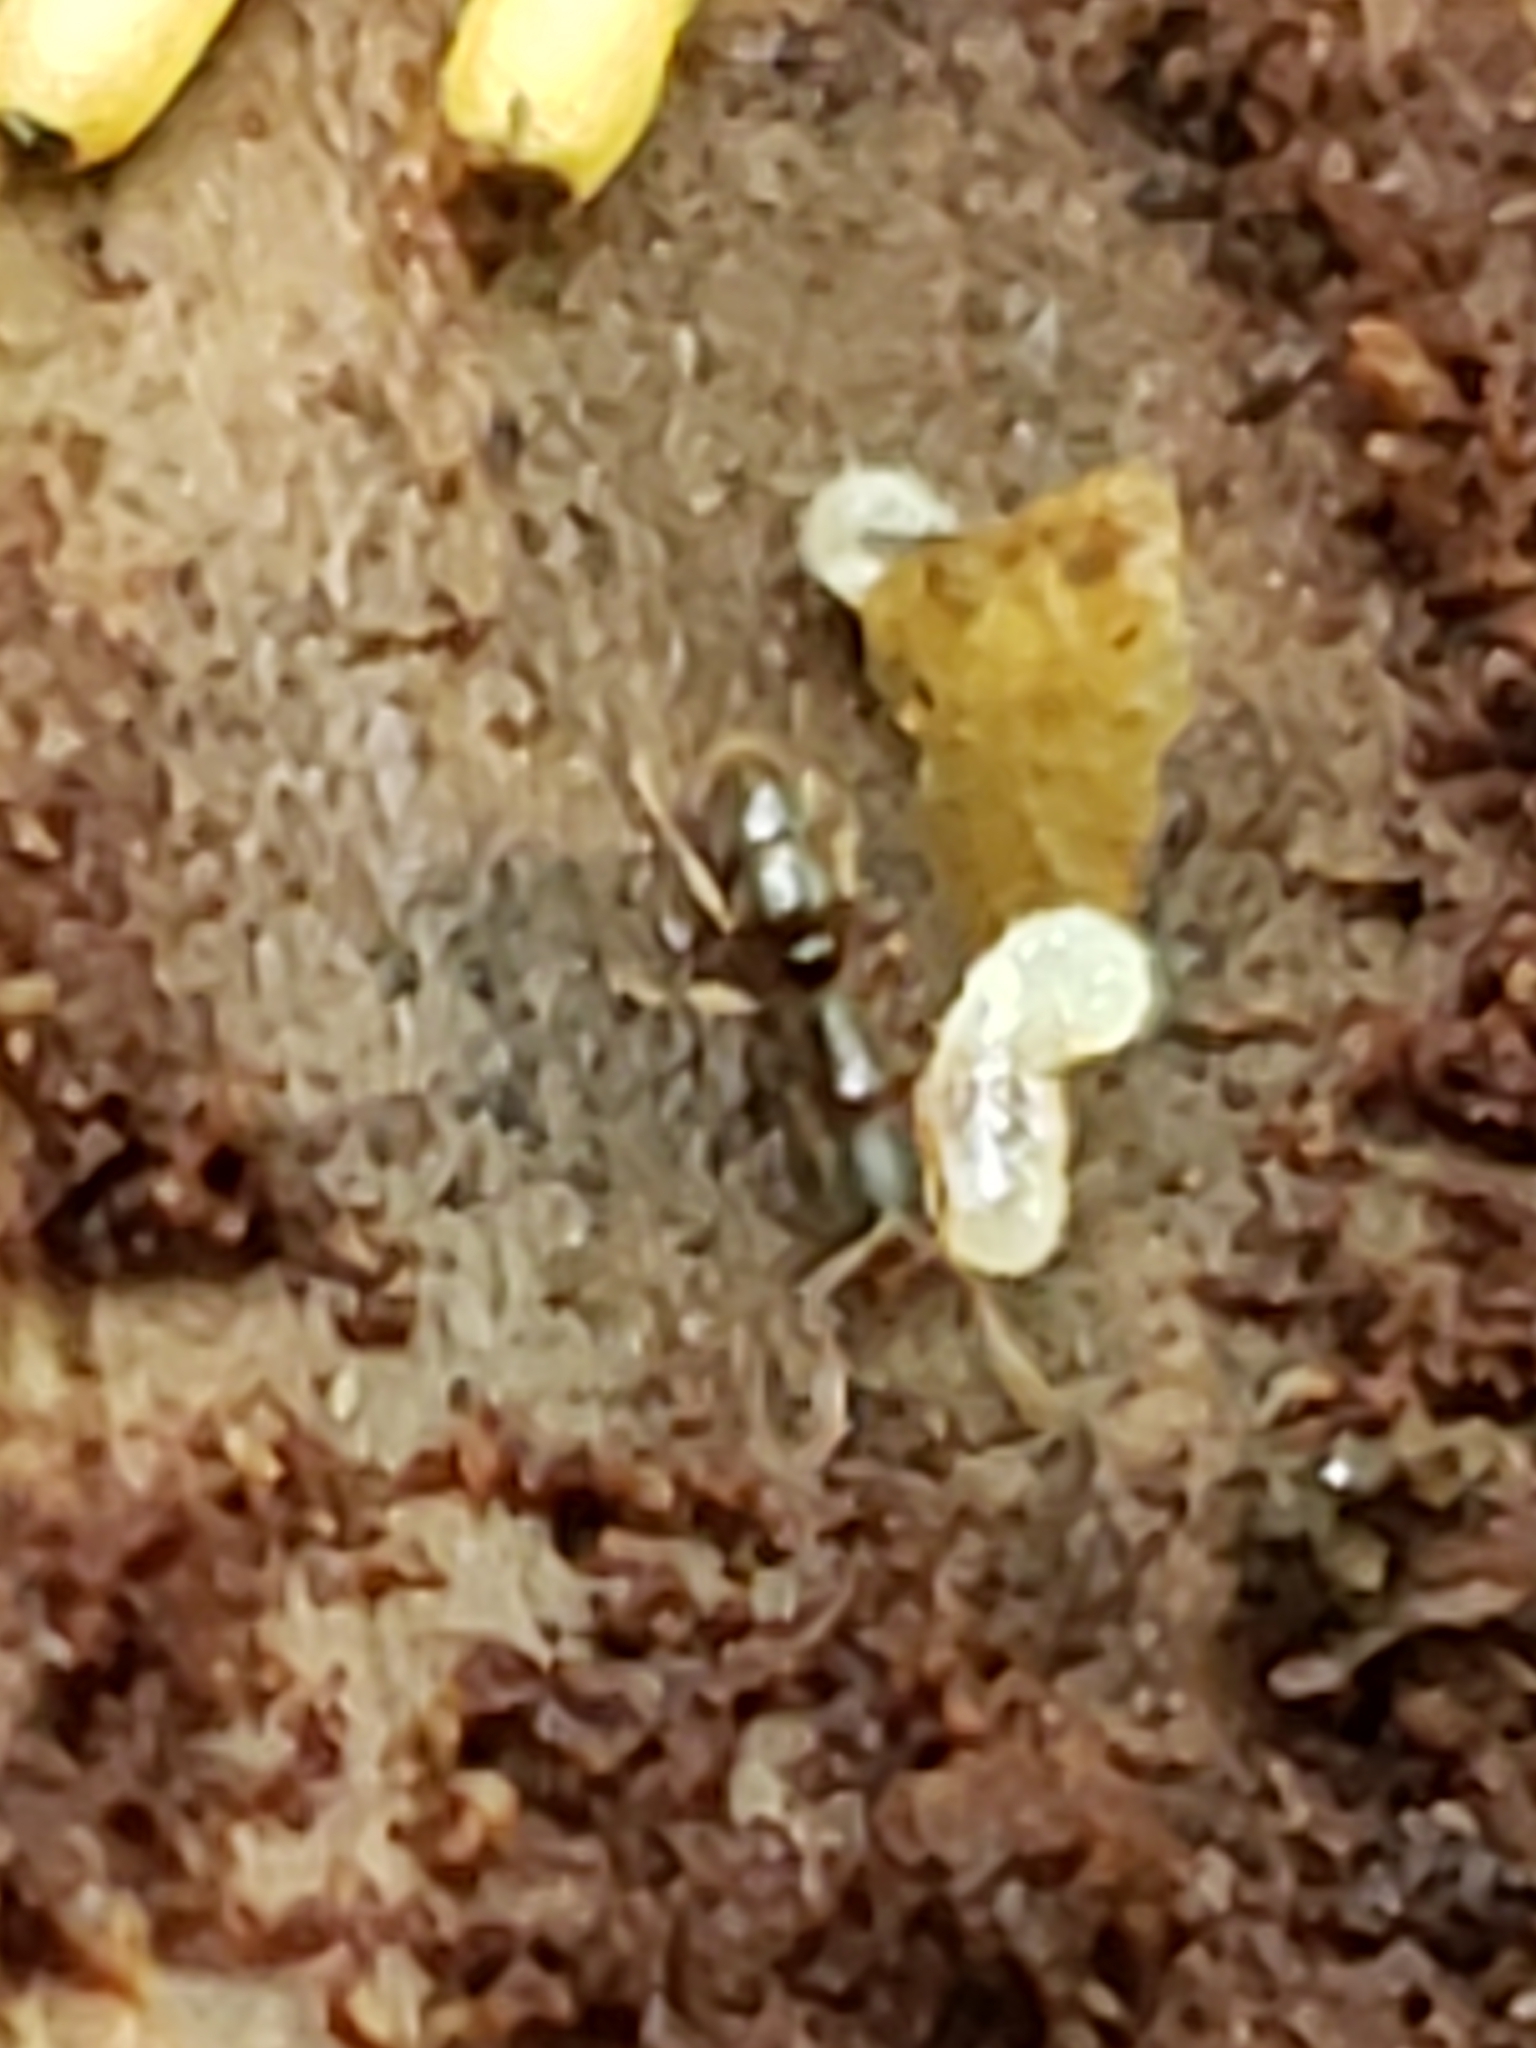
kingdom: Animalia
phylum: Arthropoda
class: Insecta
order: Hymenoptera
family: Formicidae
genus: Ponera
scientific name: Ponera pennsylvanica
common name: Pennsylvania ponera
